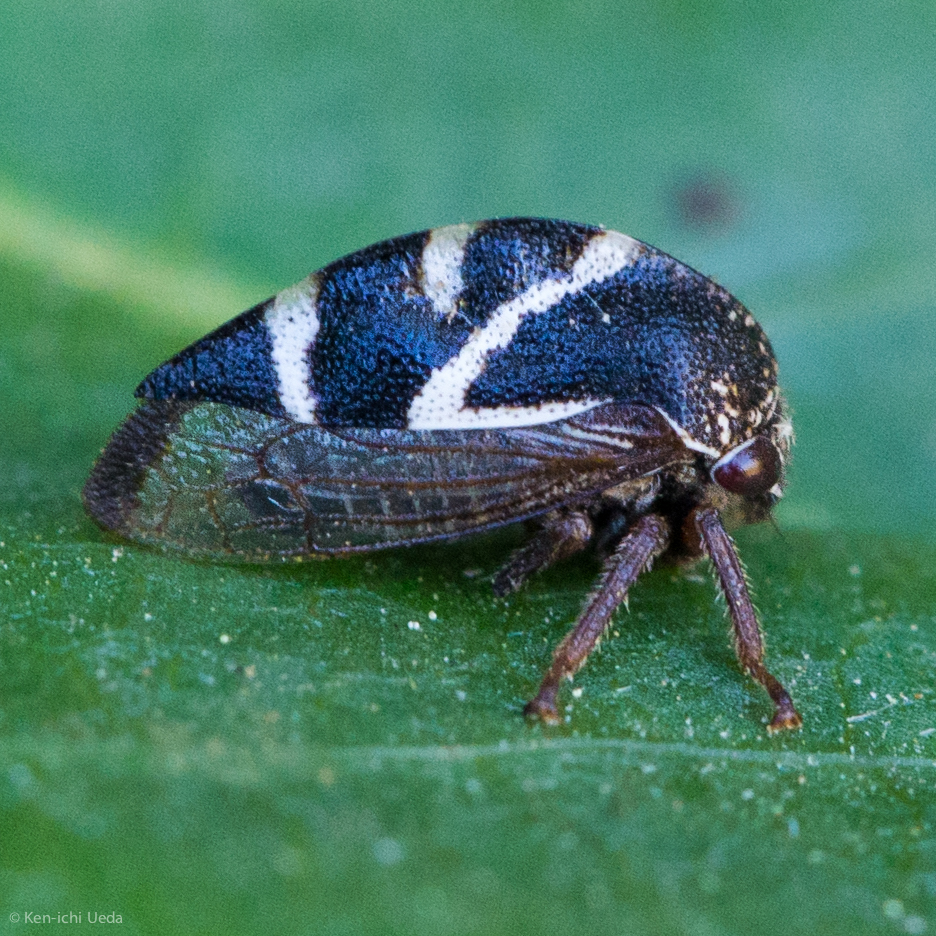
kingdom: Animalia
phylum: Arthropoda
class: Insecta
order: Hemiptera
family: Membracidae
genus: Cyrtolobus
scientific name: Cyrtolobus vanduzii
